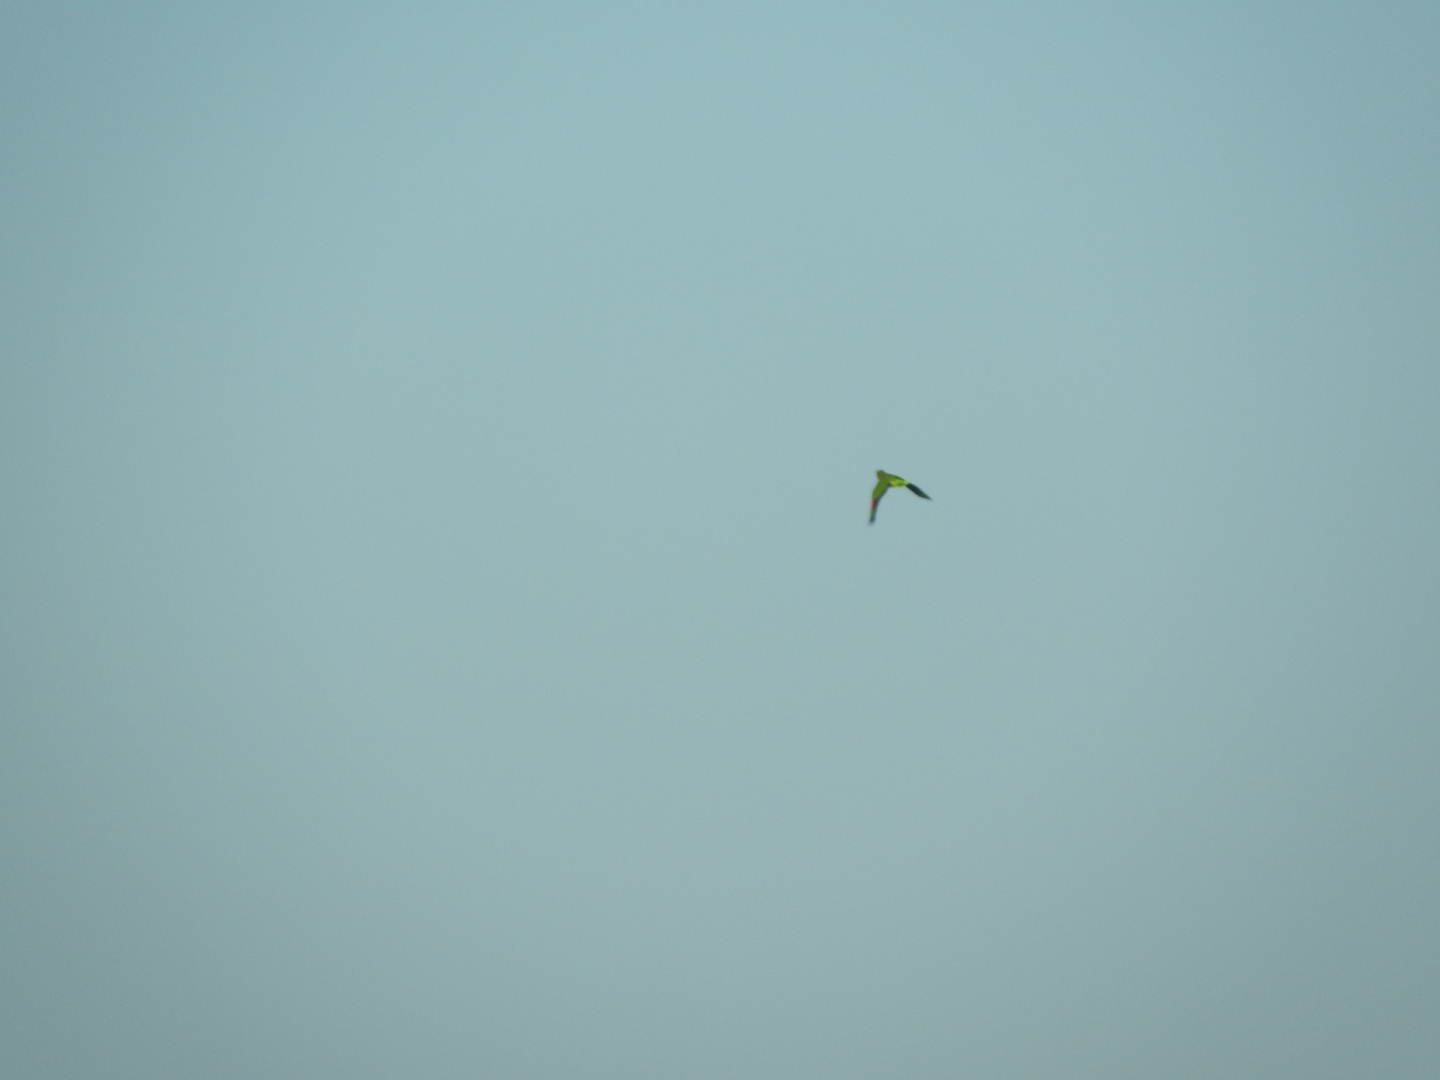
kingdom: Animalia
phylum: Chordata
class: Aves
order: Psittaciformes
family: Psittacidae
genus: Amazona
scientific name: Amazona autumnalis
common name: Red-lored amazon
